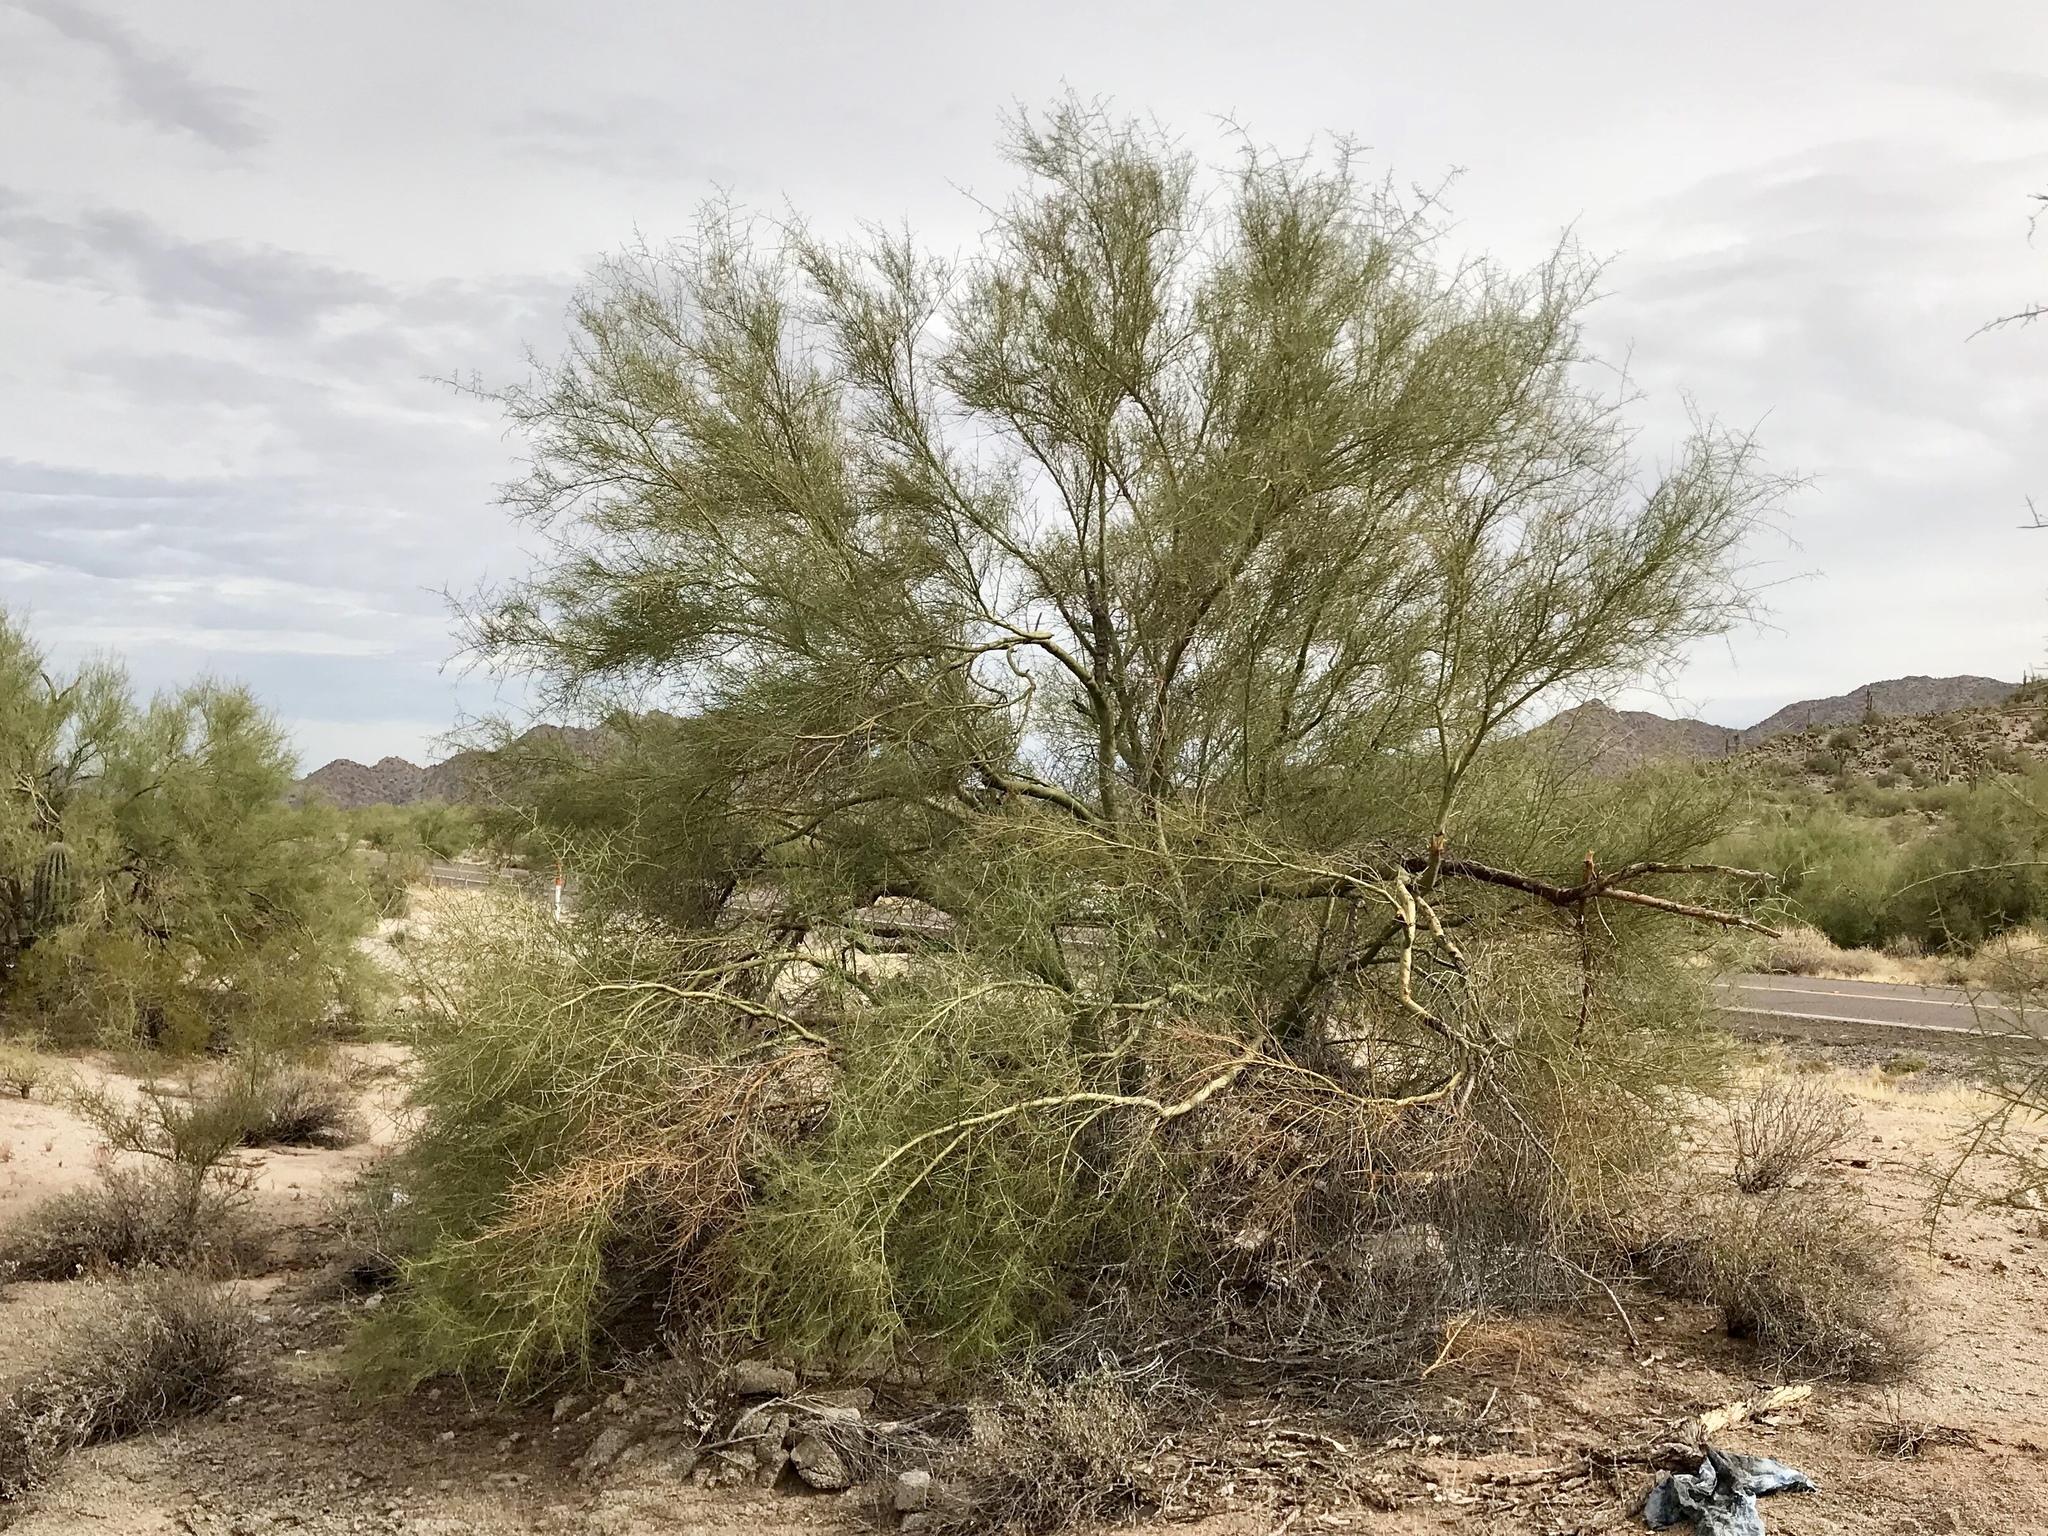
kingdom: Plantae
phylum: Tracheophyta
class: Magnoliopsida
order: Fabales
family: Fabaceae
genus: Parkinsonia
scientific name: Parkinsonia microphylla
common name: Yellow paloverde
